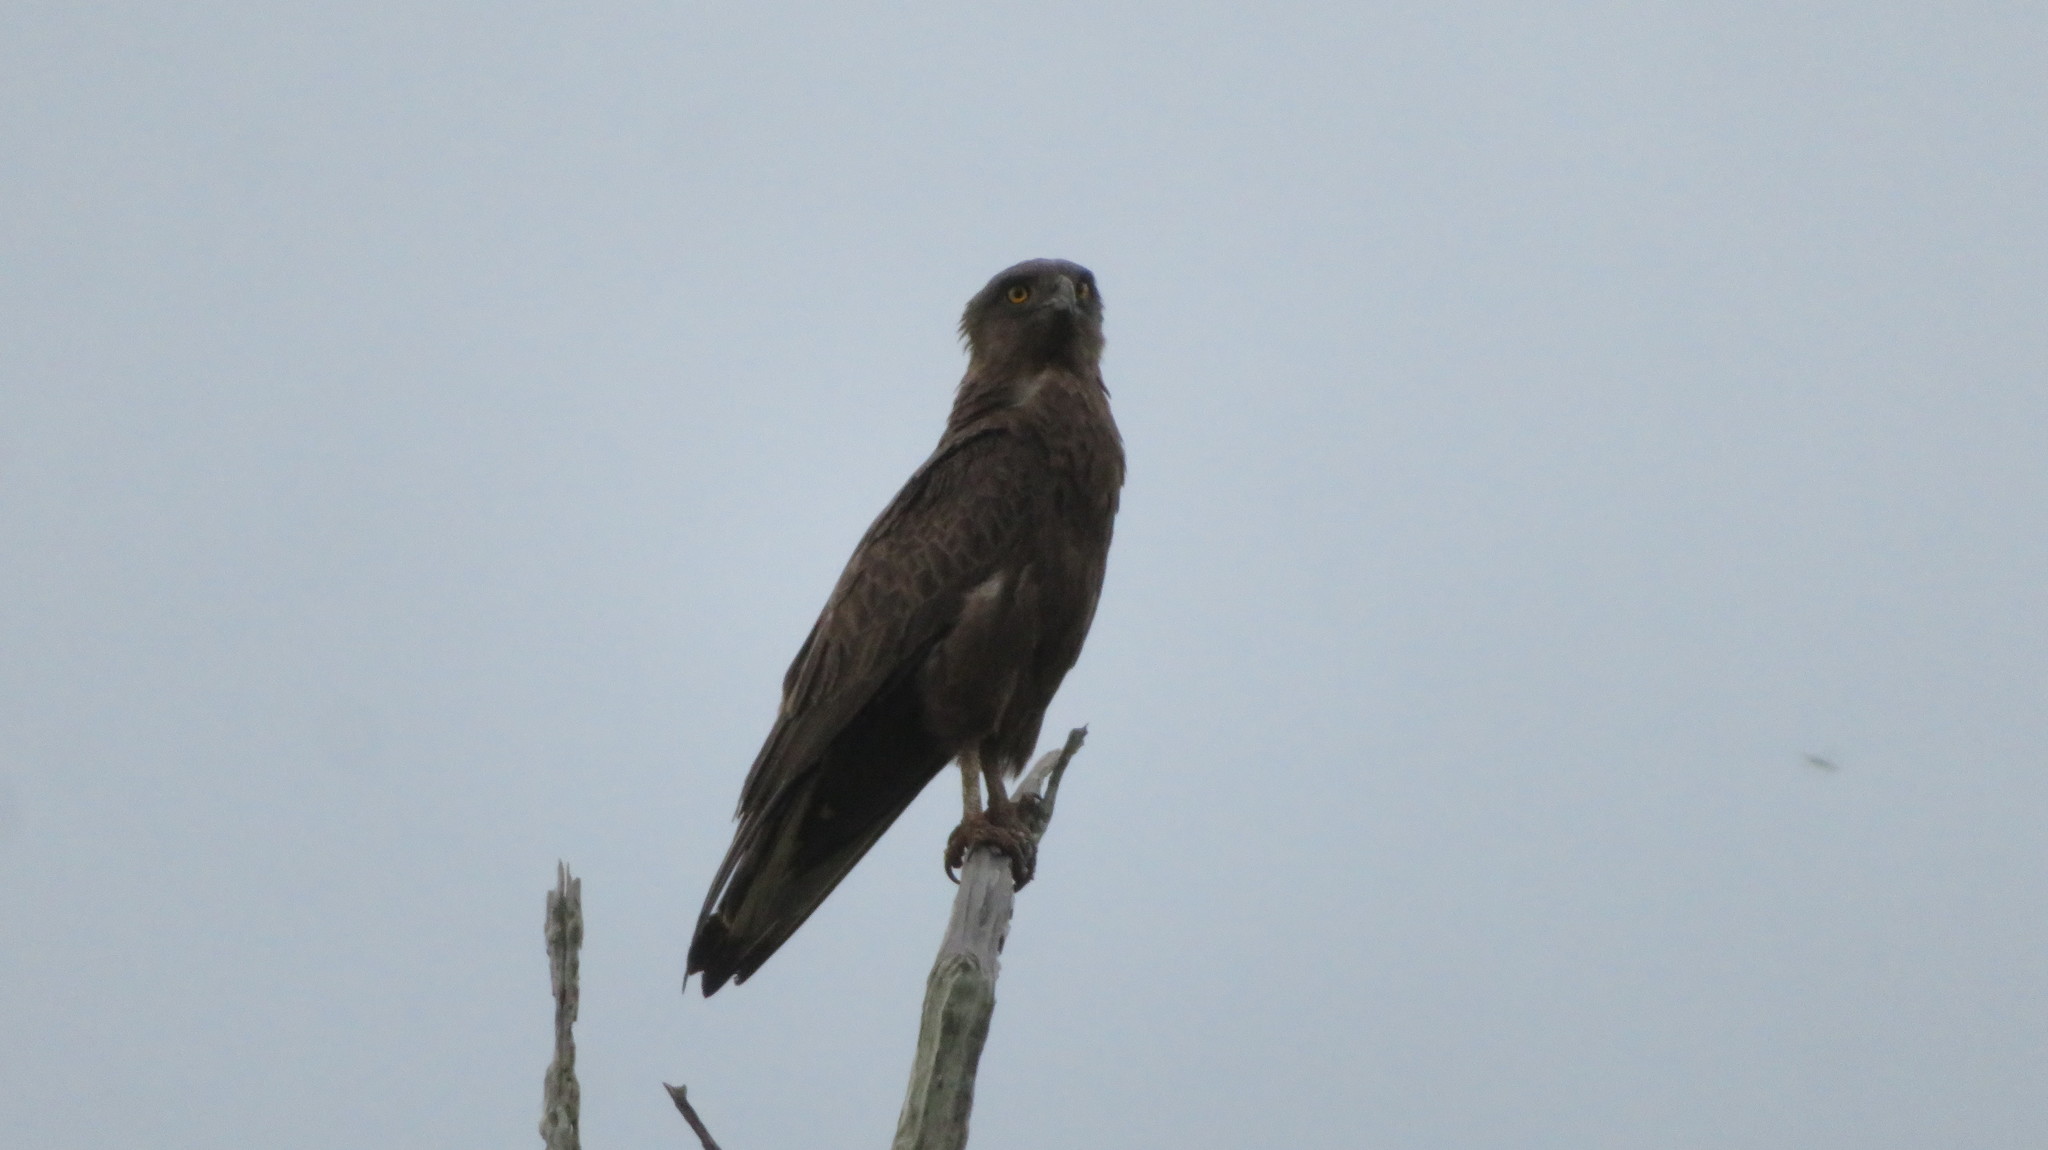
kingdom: Animalia
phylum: Chordata
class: Aves
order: Accipitriformes
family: Accipitridae
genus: Circaetus
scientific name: Circaetus cinereus
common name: Brown snake eagle
